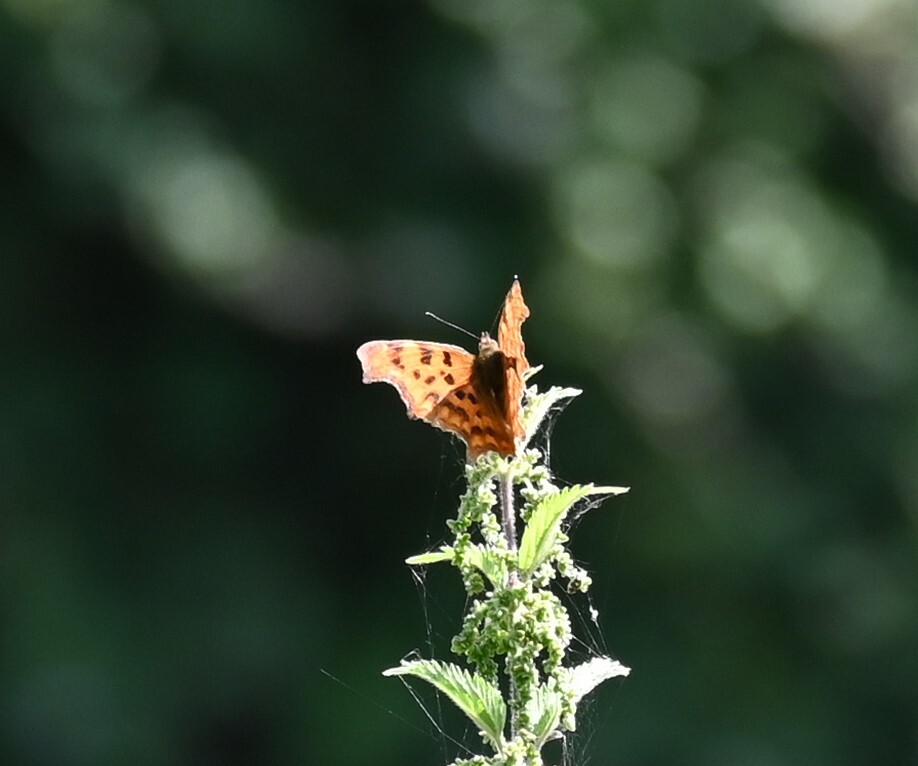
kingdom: Animalia
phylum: Arthropoda
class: Insecta
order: Lepidoptera
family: Nymphalidae
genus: Polygonia
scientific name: Polygonia c-album
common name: Comma
